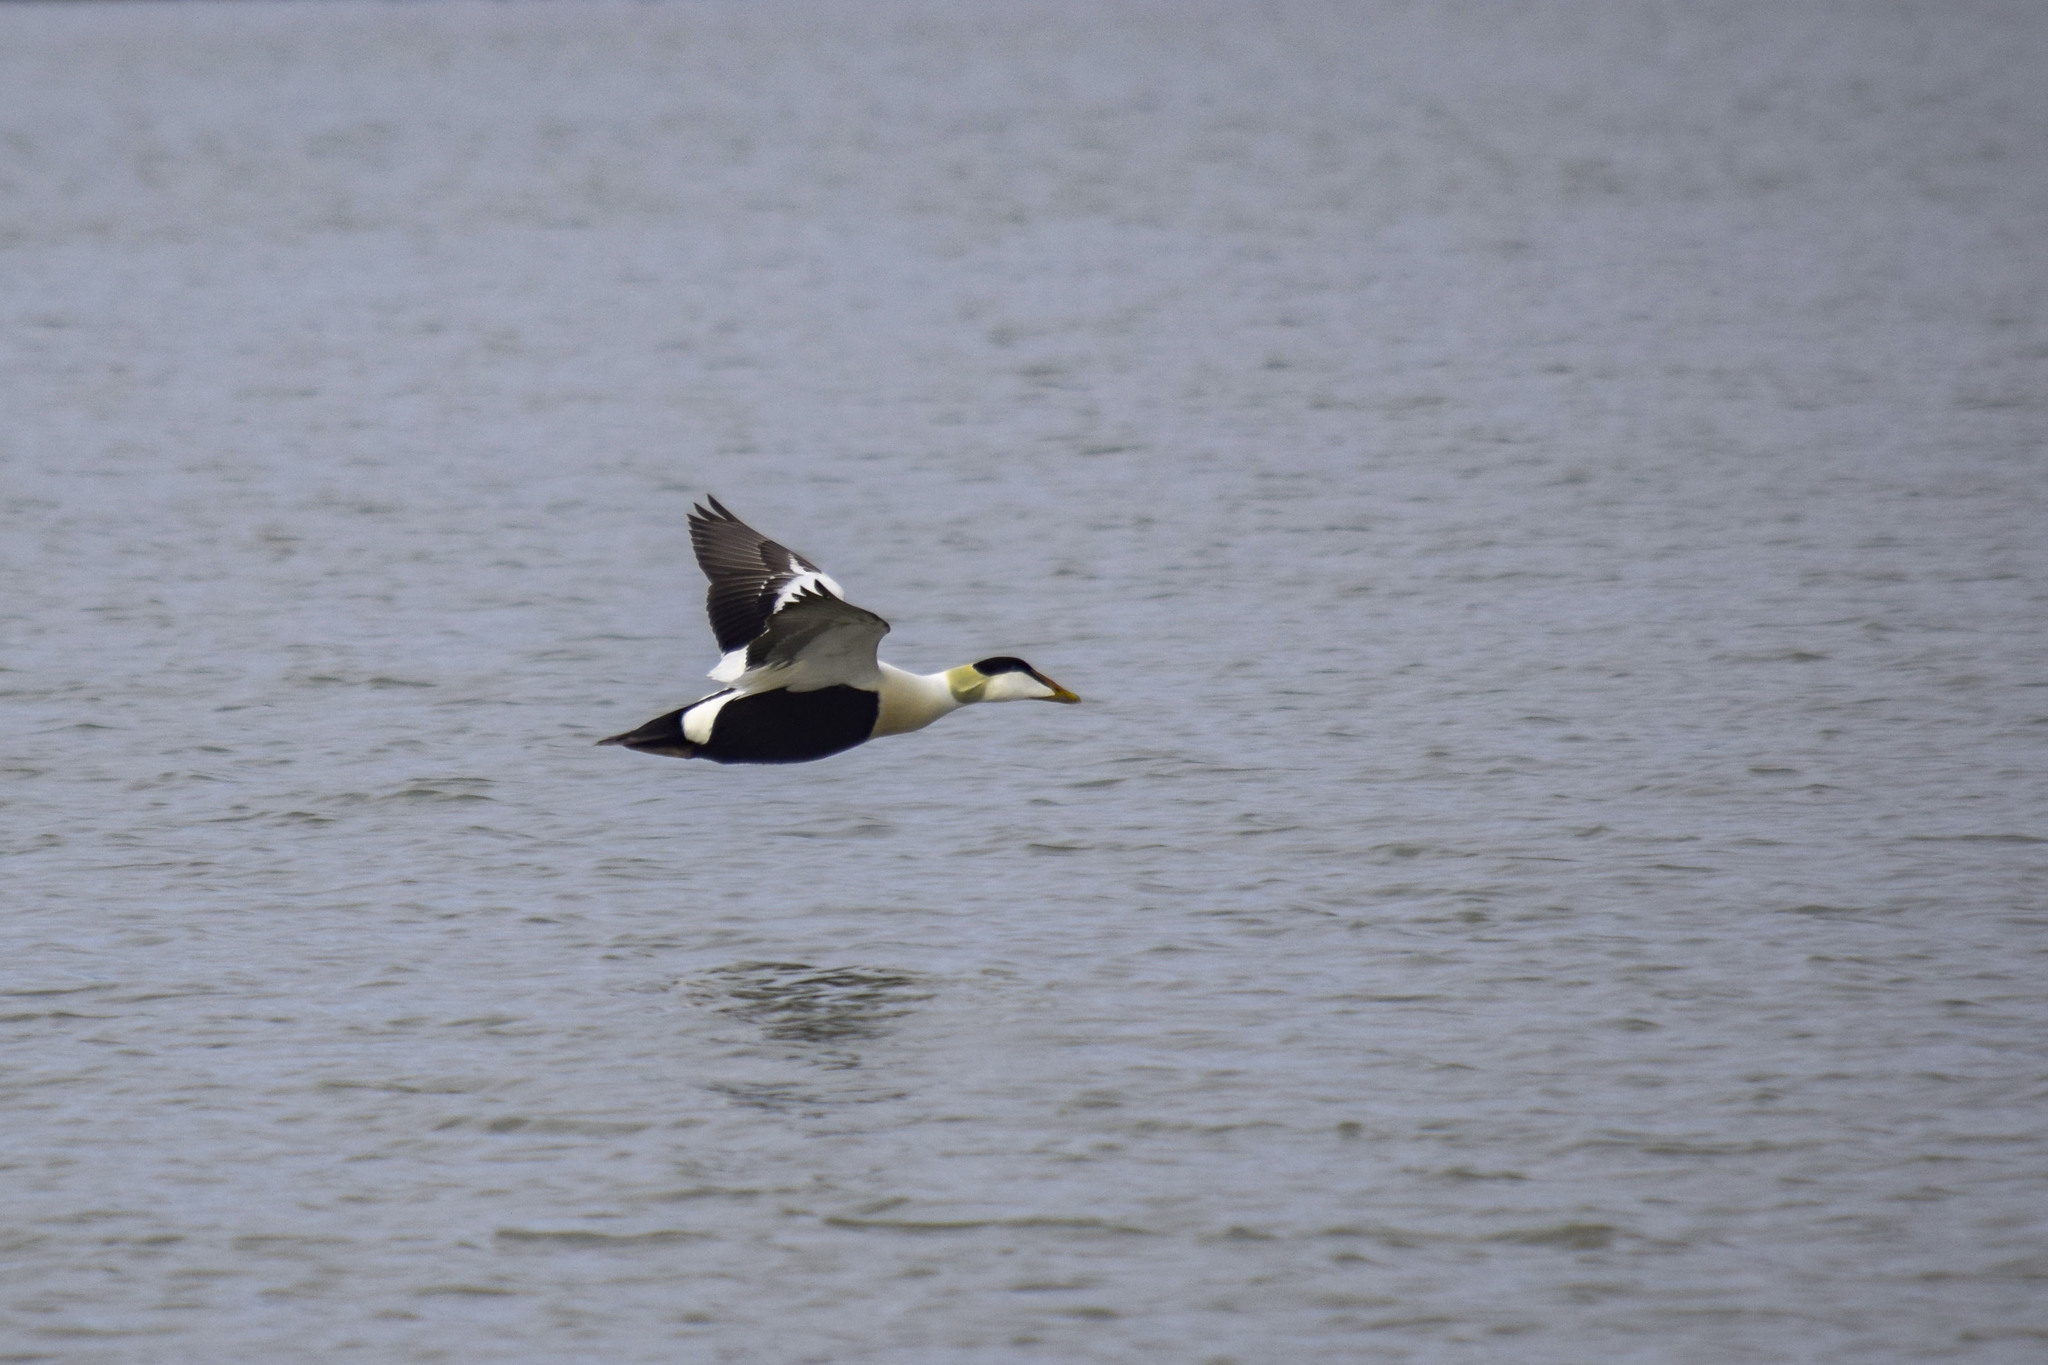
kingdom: Animalia
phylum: Chordata
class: Aves
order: Anseriformes
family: Anatidae
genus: Somateria
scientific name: Somateria mollissima
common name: Common eider
